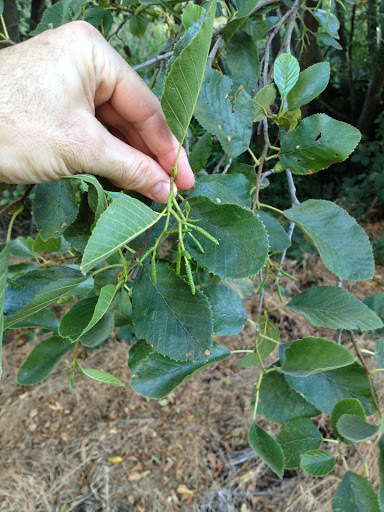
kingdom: Plantae
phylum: Tracheophyta
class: Magnoliopsida
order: Fagales
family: Betulaceae
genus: Alnus
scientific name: Alnus rhombifolia
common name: California alder
